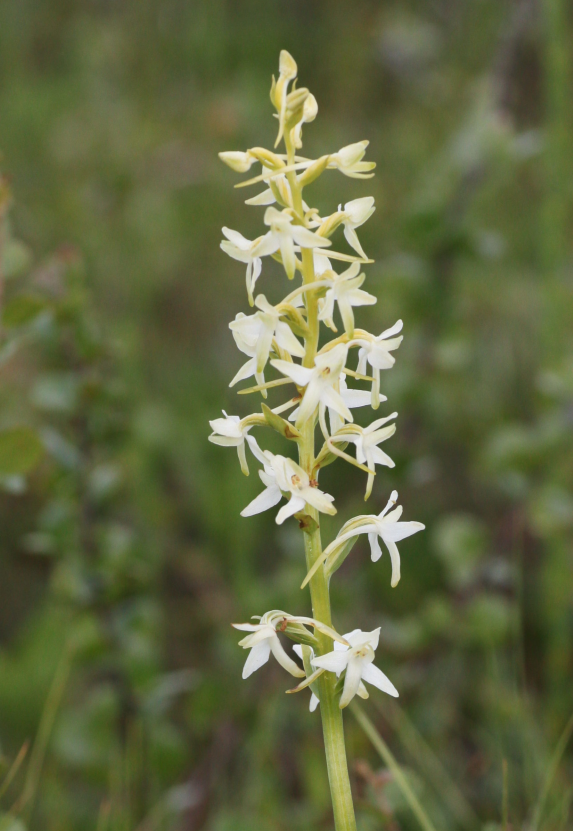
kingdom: Plantae
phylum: Tracheophyta
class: Liliopsida
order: Asparagales
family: Orchidaceae
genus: Platanthera
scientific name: Platanthera bifolia
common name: Lesser butterfly-orchid
